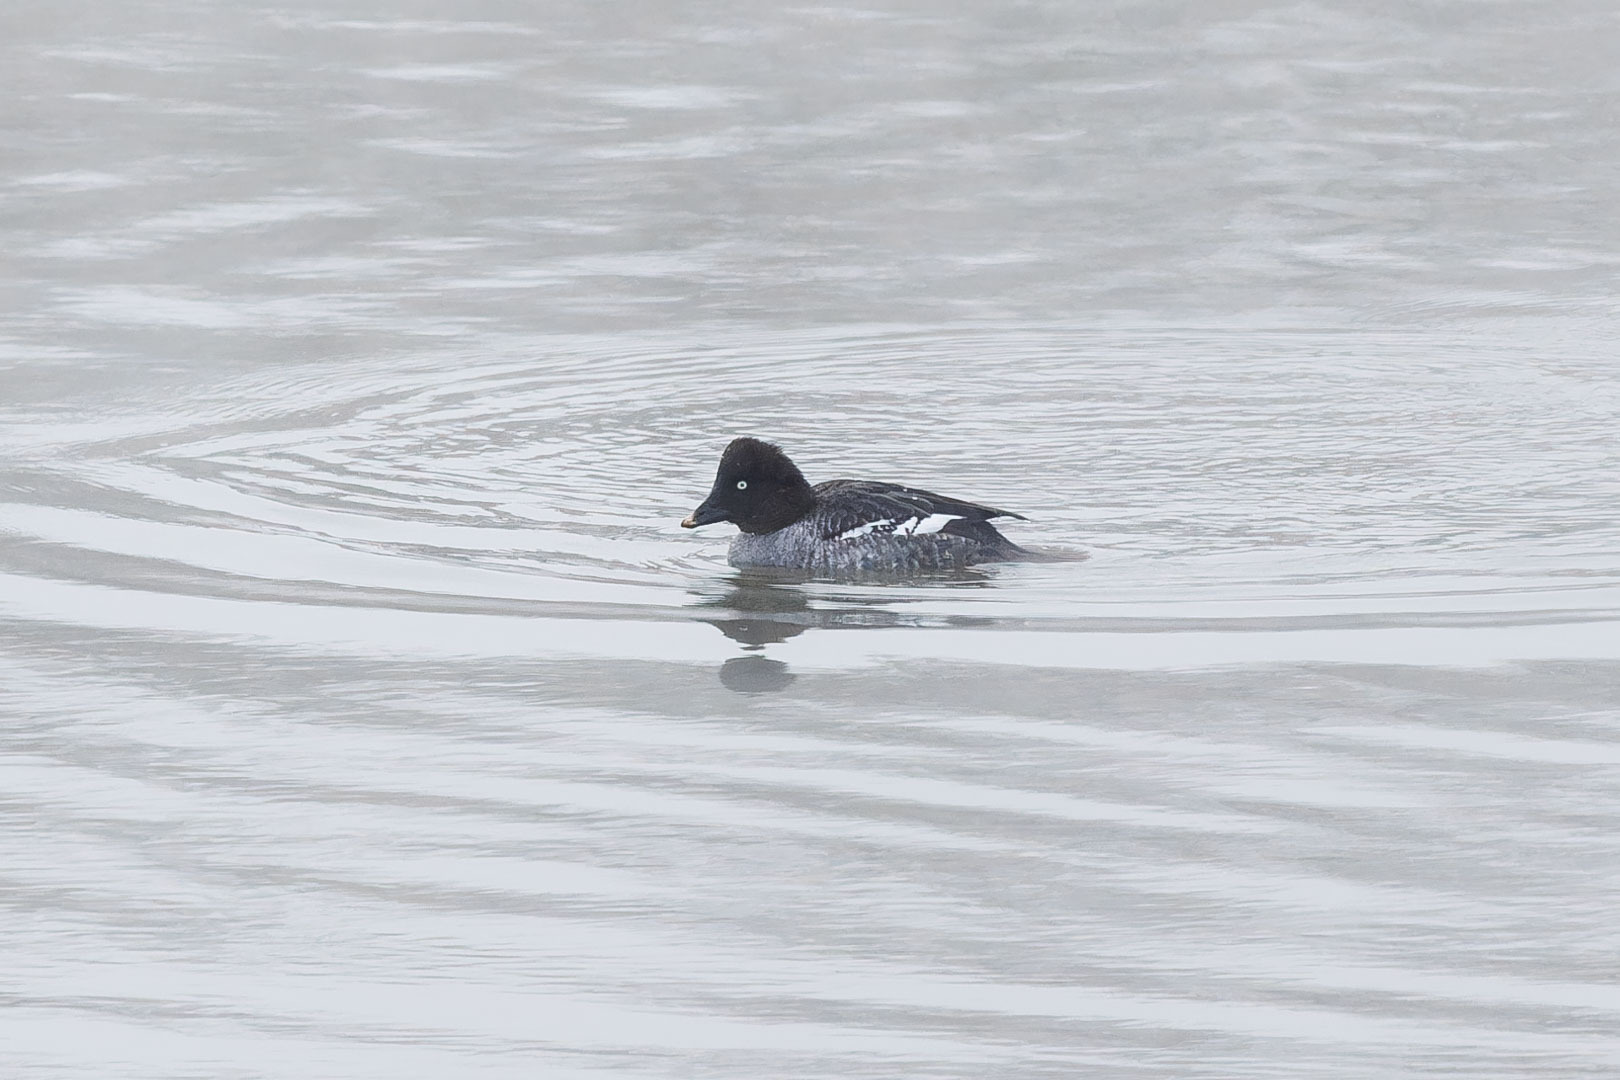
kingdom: Animalia
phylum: Chordata
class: Aves
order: Anseriformes
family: Anatidae
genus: Bucephala
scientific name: Bucephala clangula
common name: Common goldeneye
